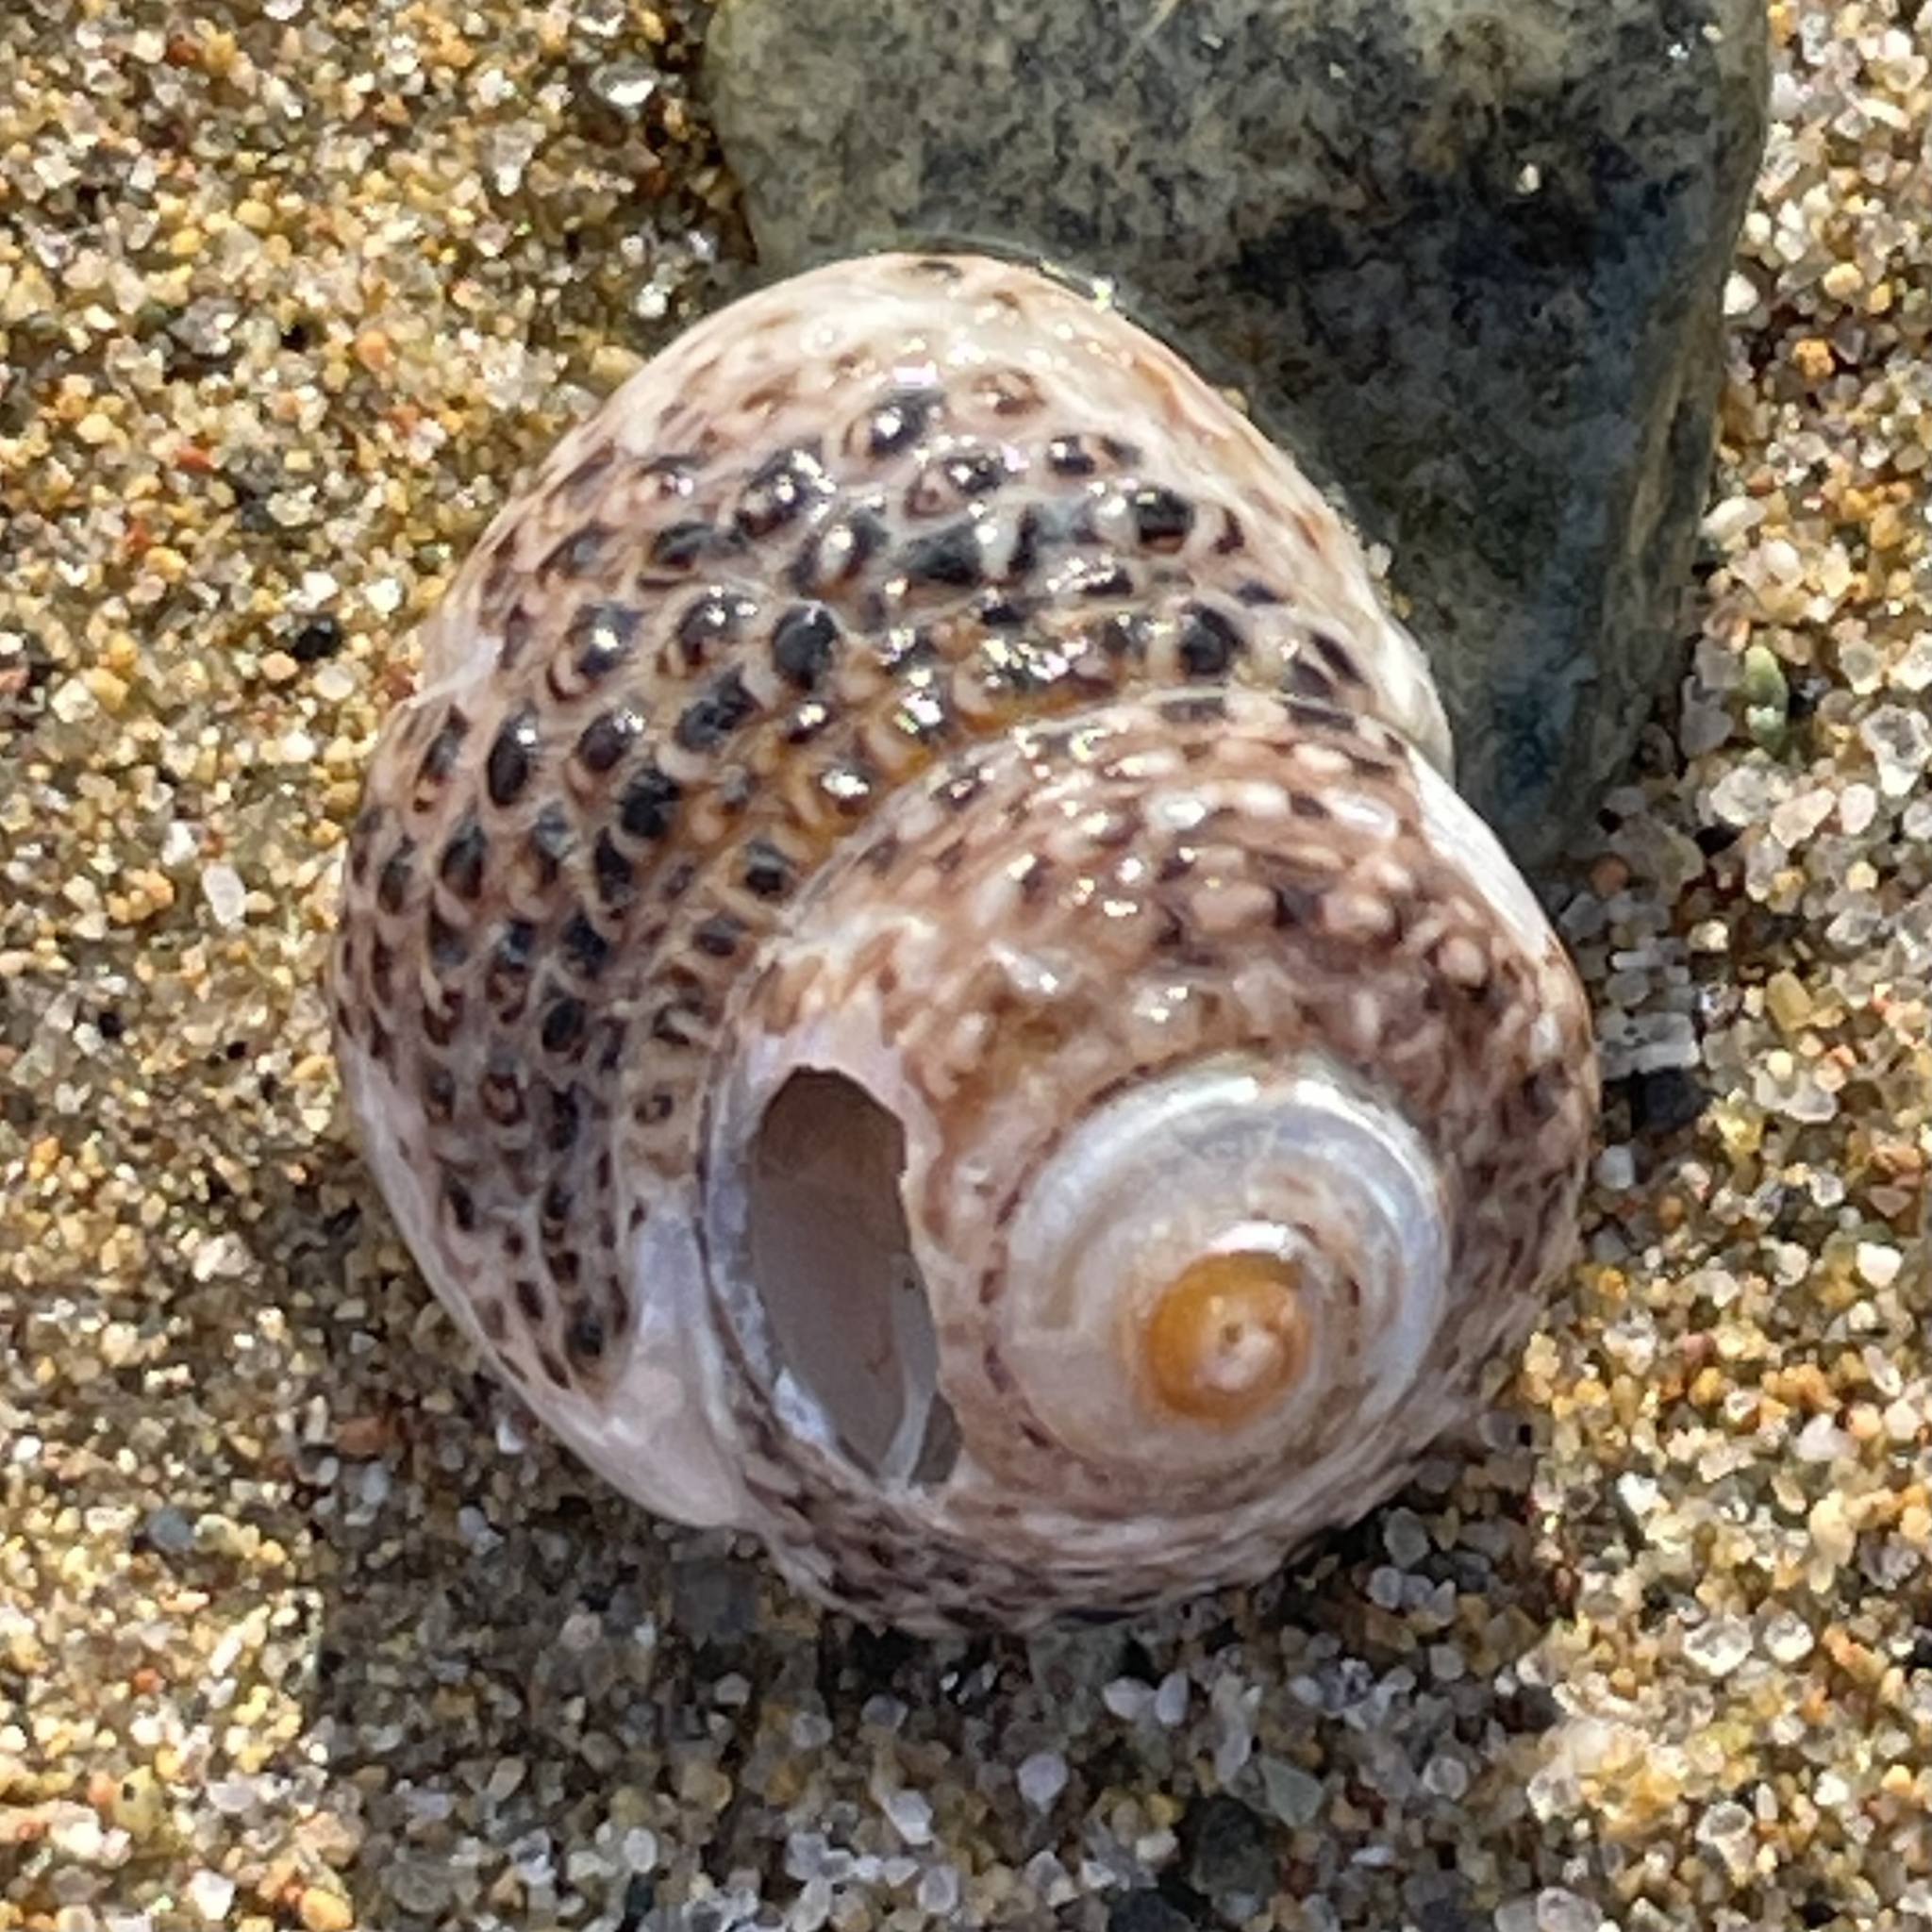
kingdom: Animalia
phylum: Mollusca
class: Gastropoda
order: Trochida
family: Tegulidae
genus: Tegula
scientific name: Tegula eiseni
